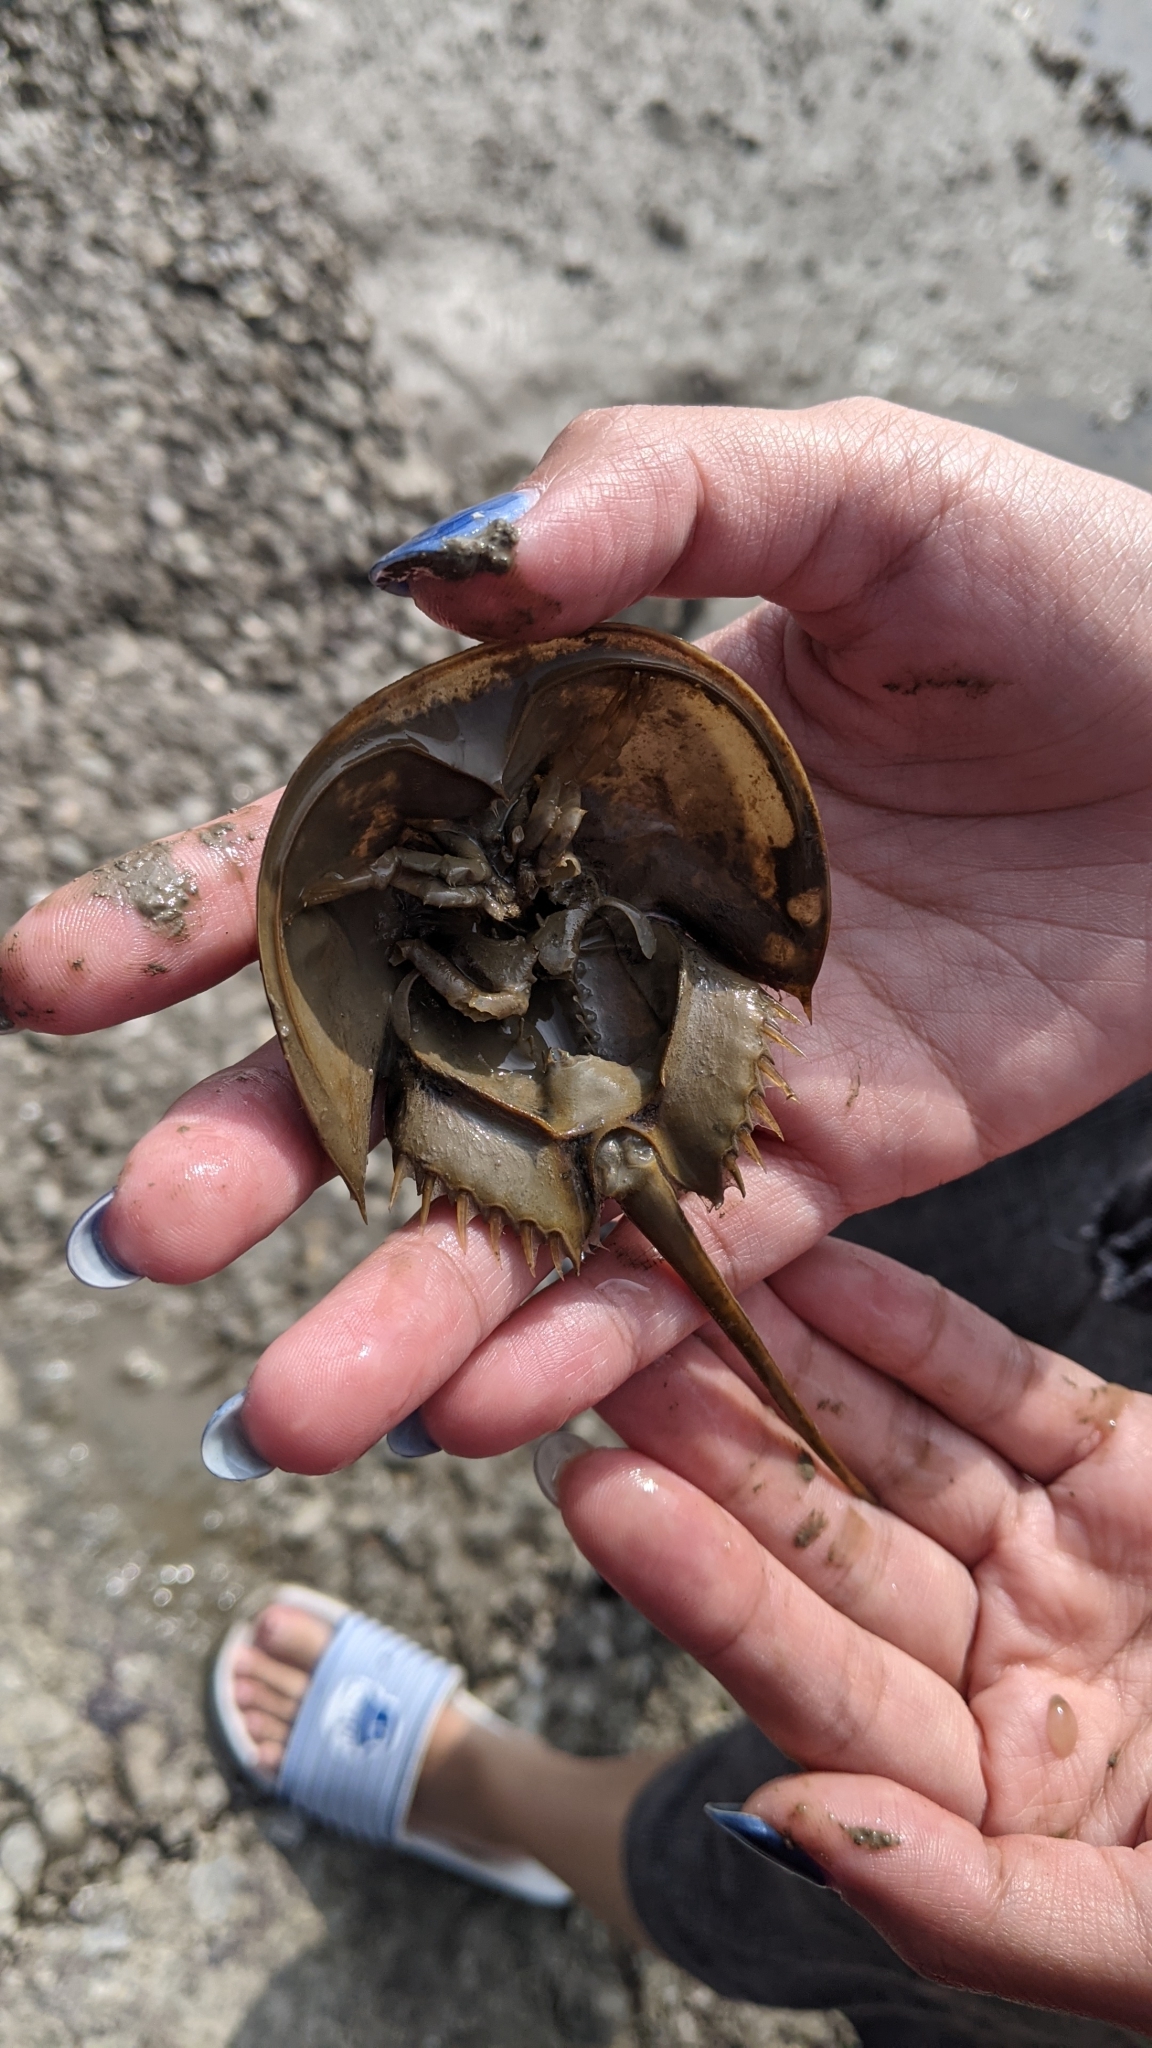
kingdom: Animalia
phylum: Arthropoda
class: Merostomata
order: Xiphosurida
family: Limulidae
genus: Tachypleus
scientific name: Tachypleus tridentatus
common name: Tri-spine horseshoe crab
